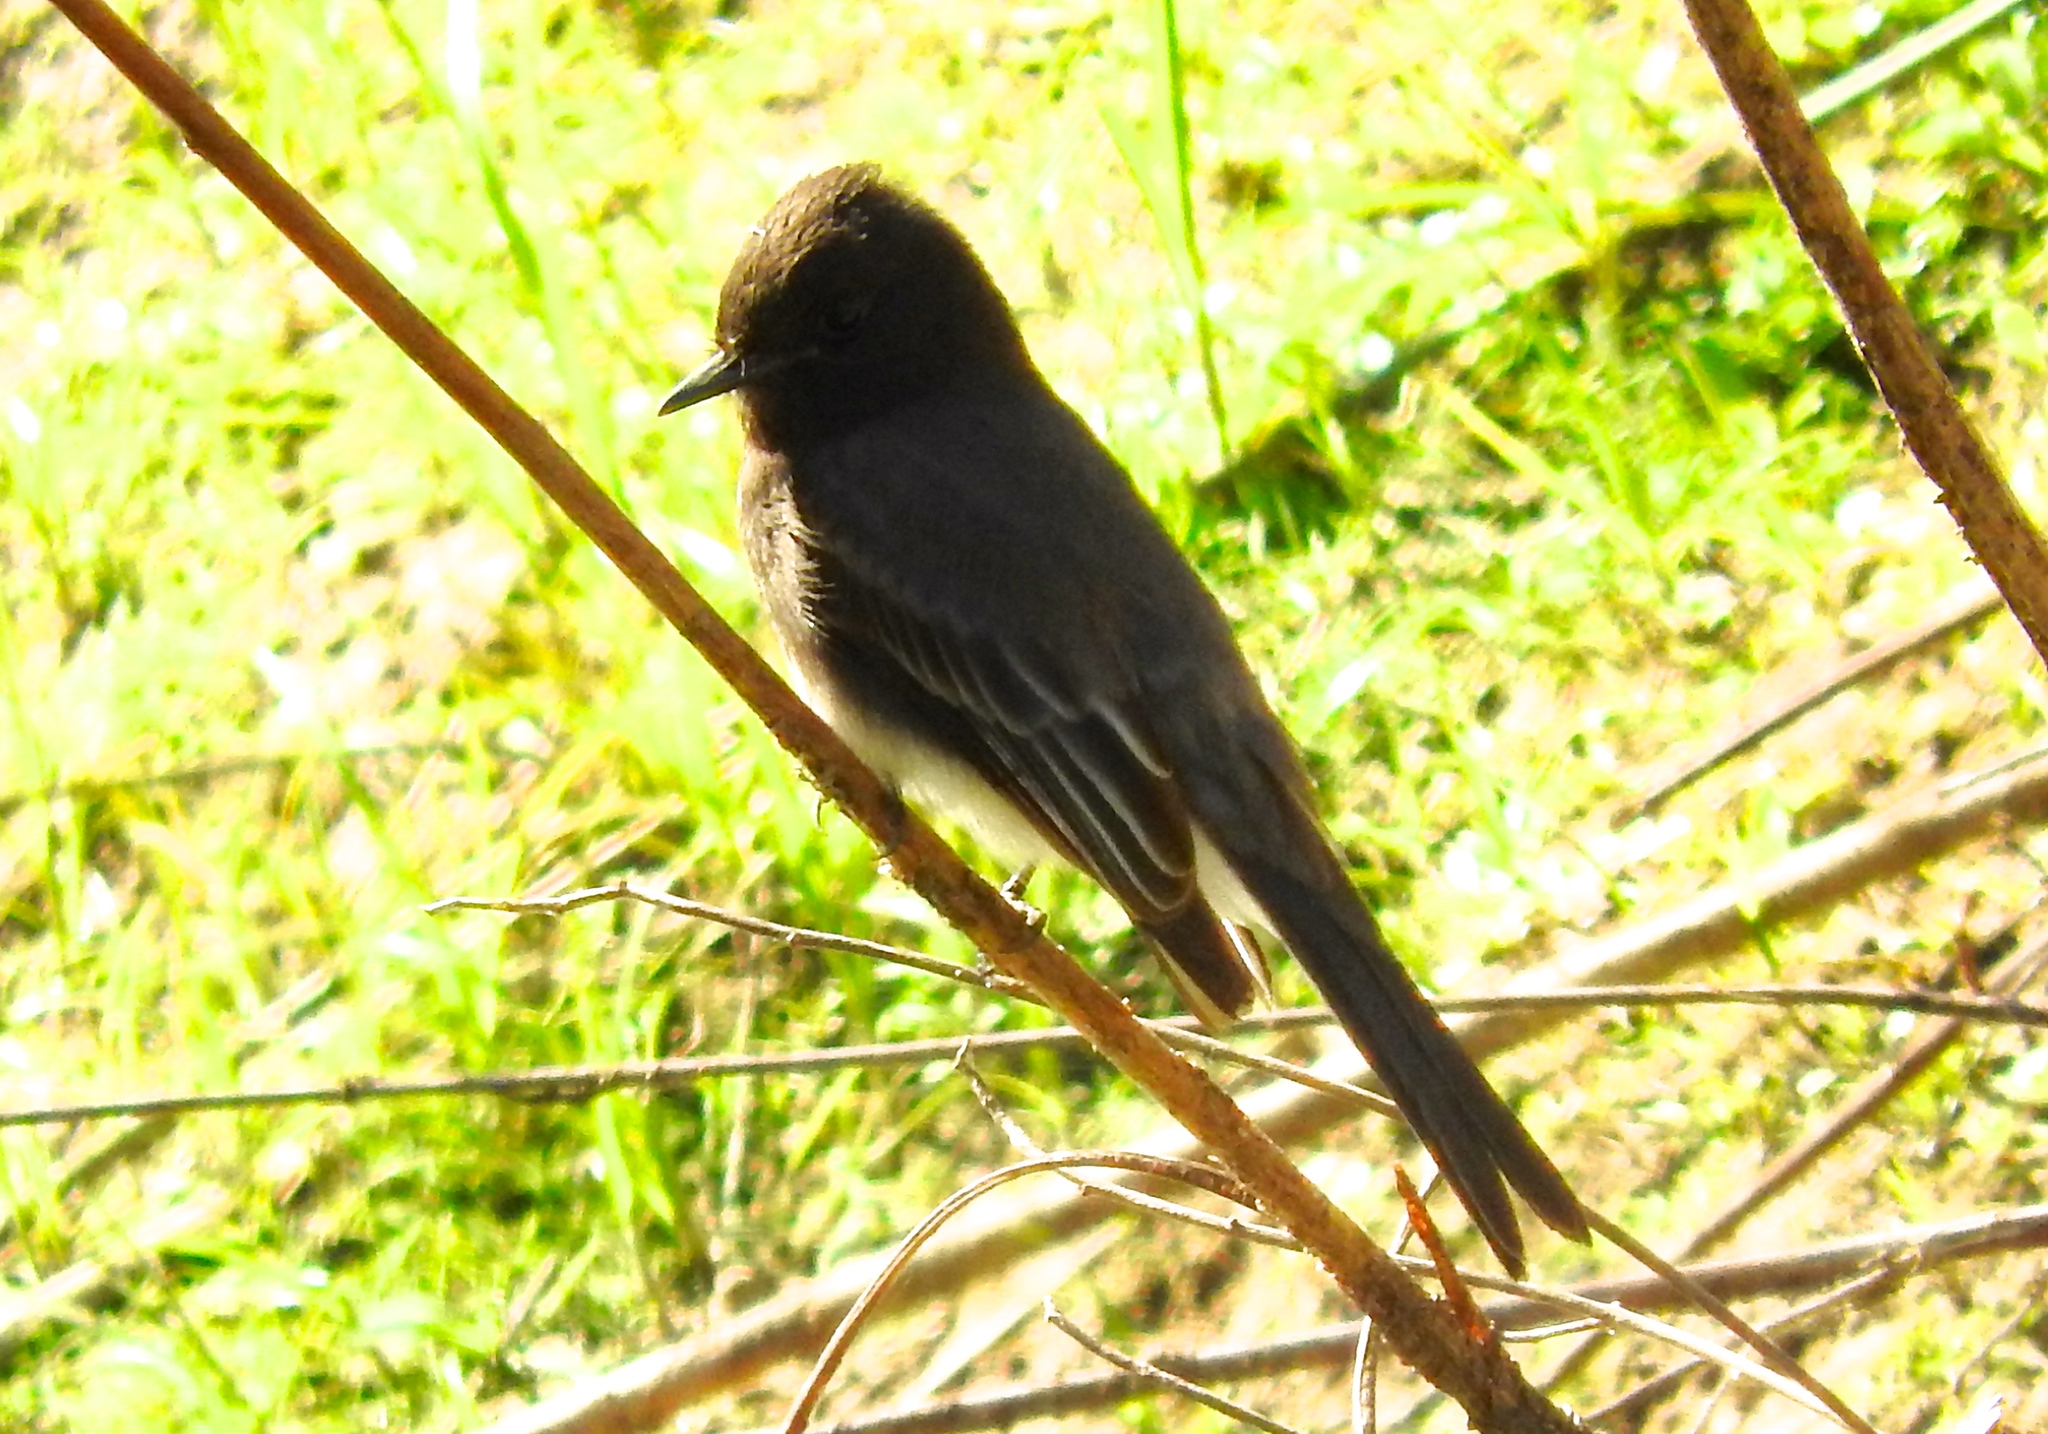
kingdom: Animalia
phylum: Chordata
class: Aves
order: Passeriformes
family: Tyrannidae
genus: Sayornis
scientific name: Sayornis nigricans
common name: Black phoebe
